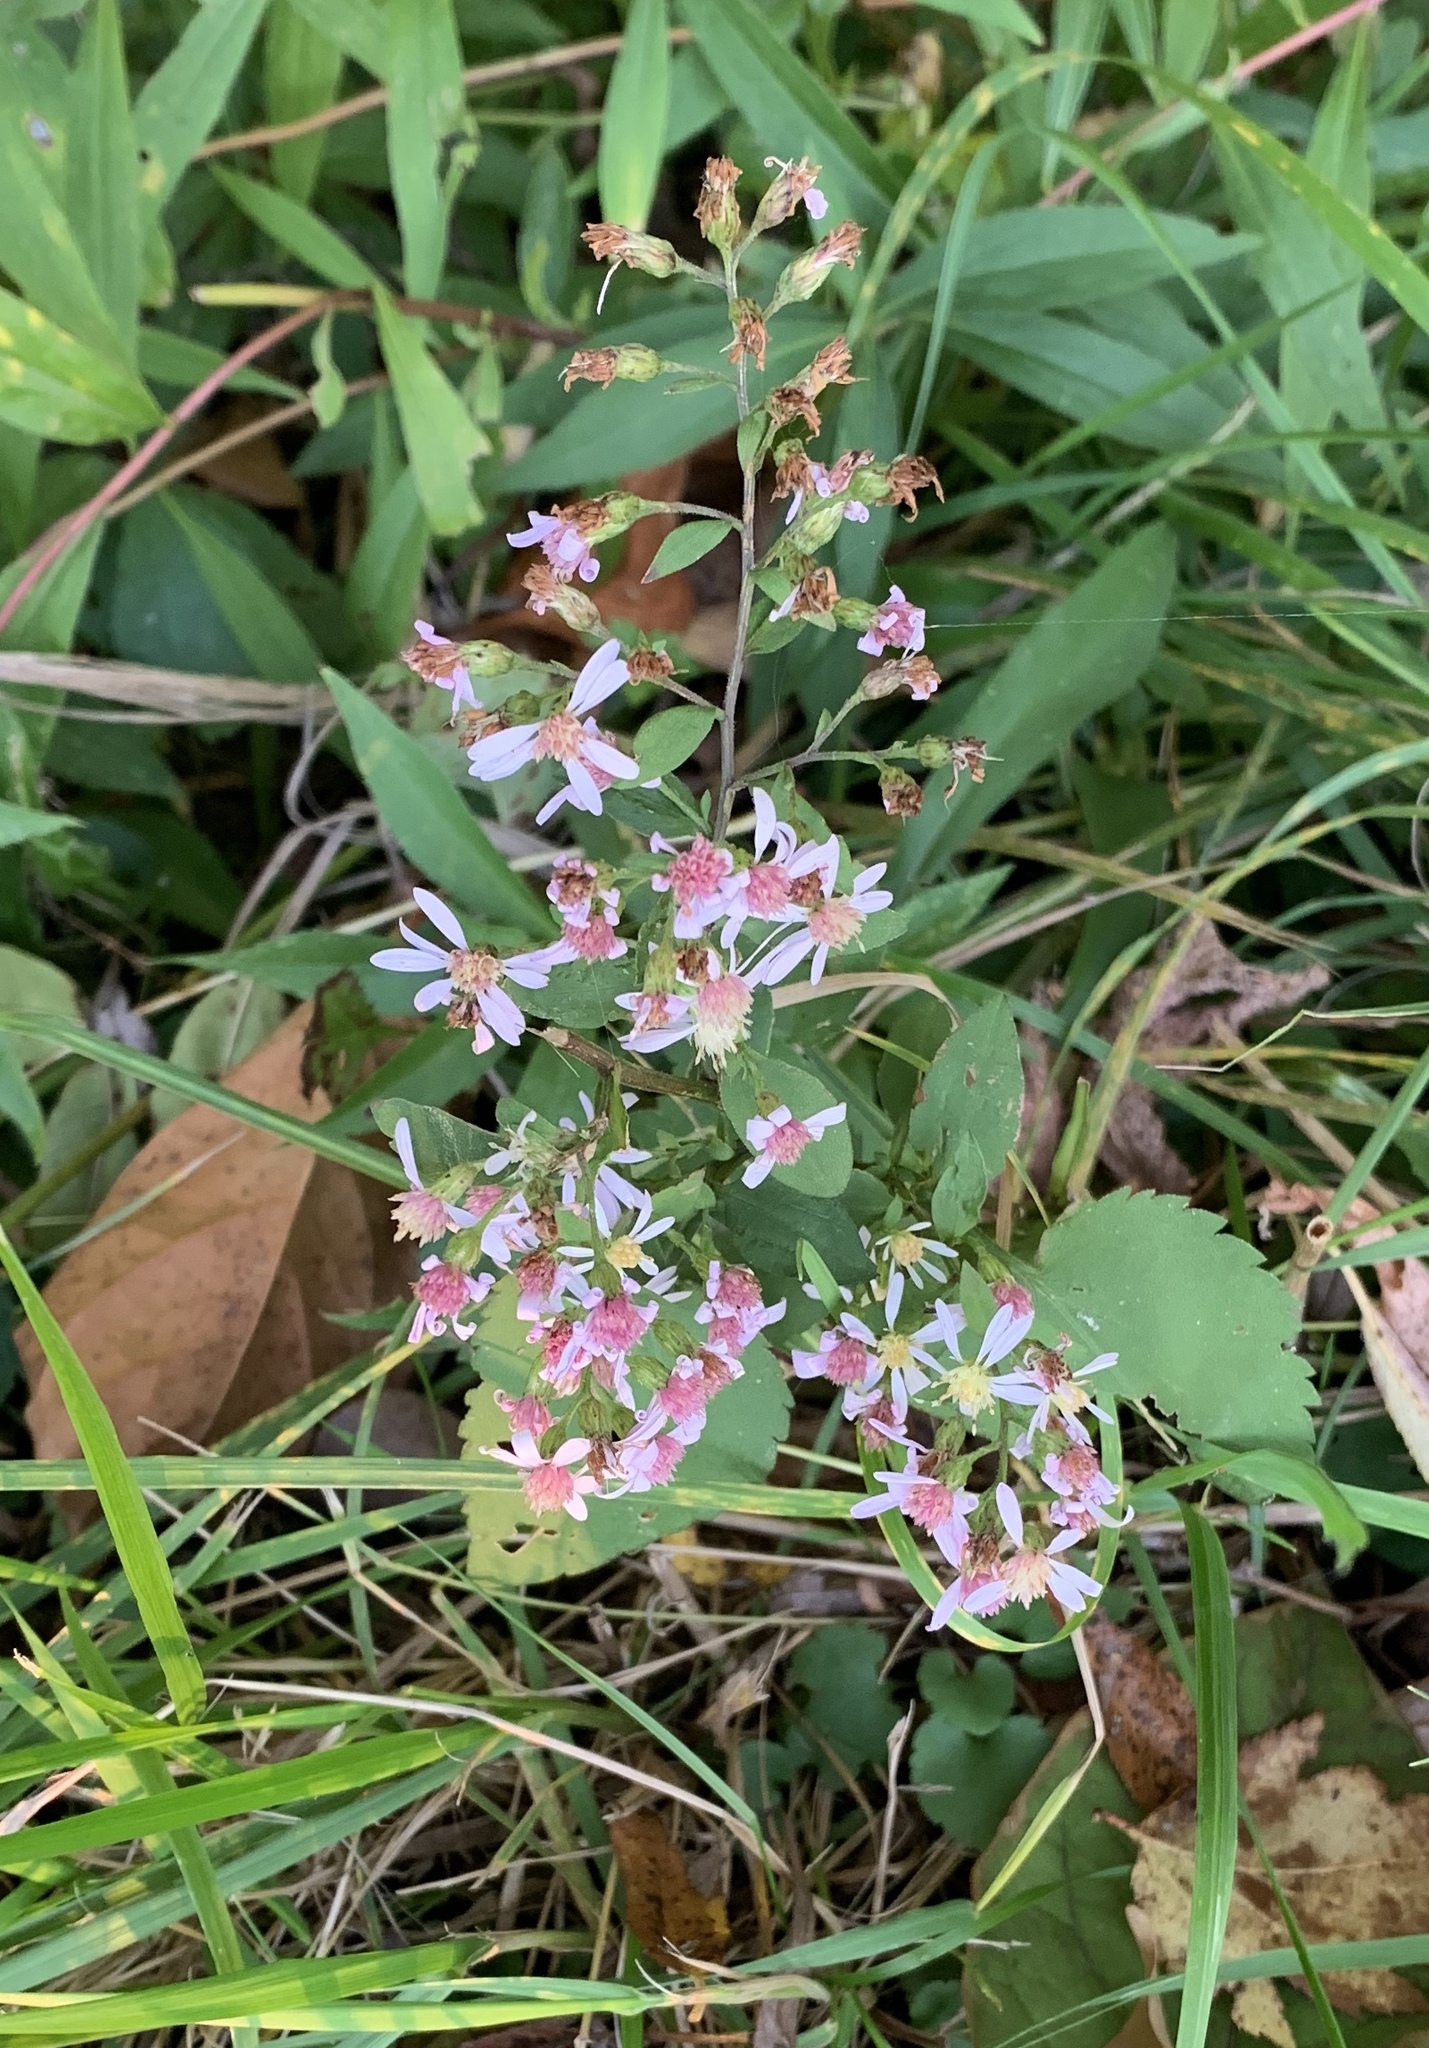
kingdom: Plantae
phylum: Tracheophyta
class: Magnoliopsida
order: Asterales
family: Asteraceae
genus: Symphyotrichum
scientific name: Symphyotrichum cordifolium
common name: Beeweed
